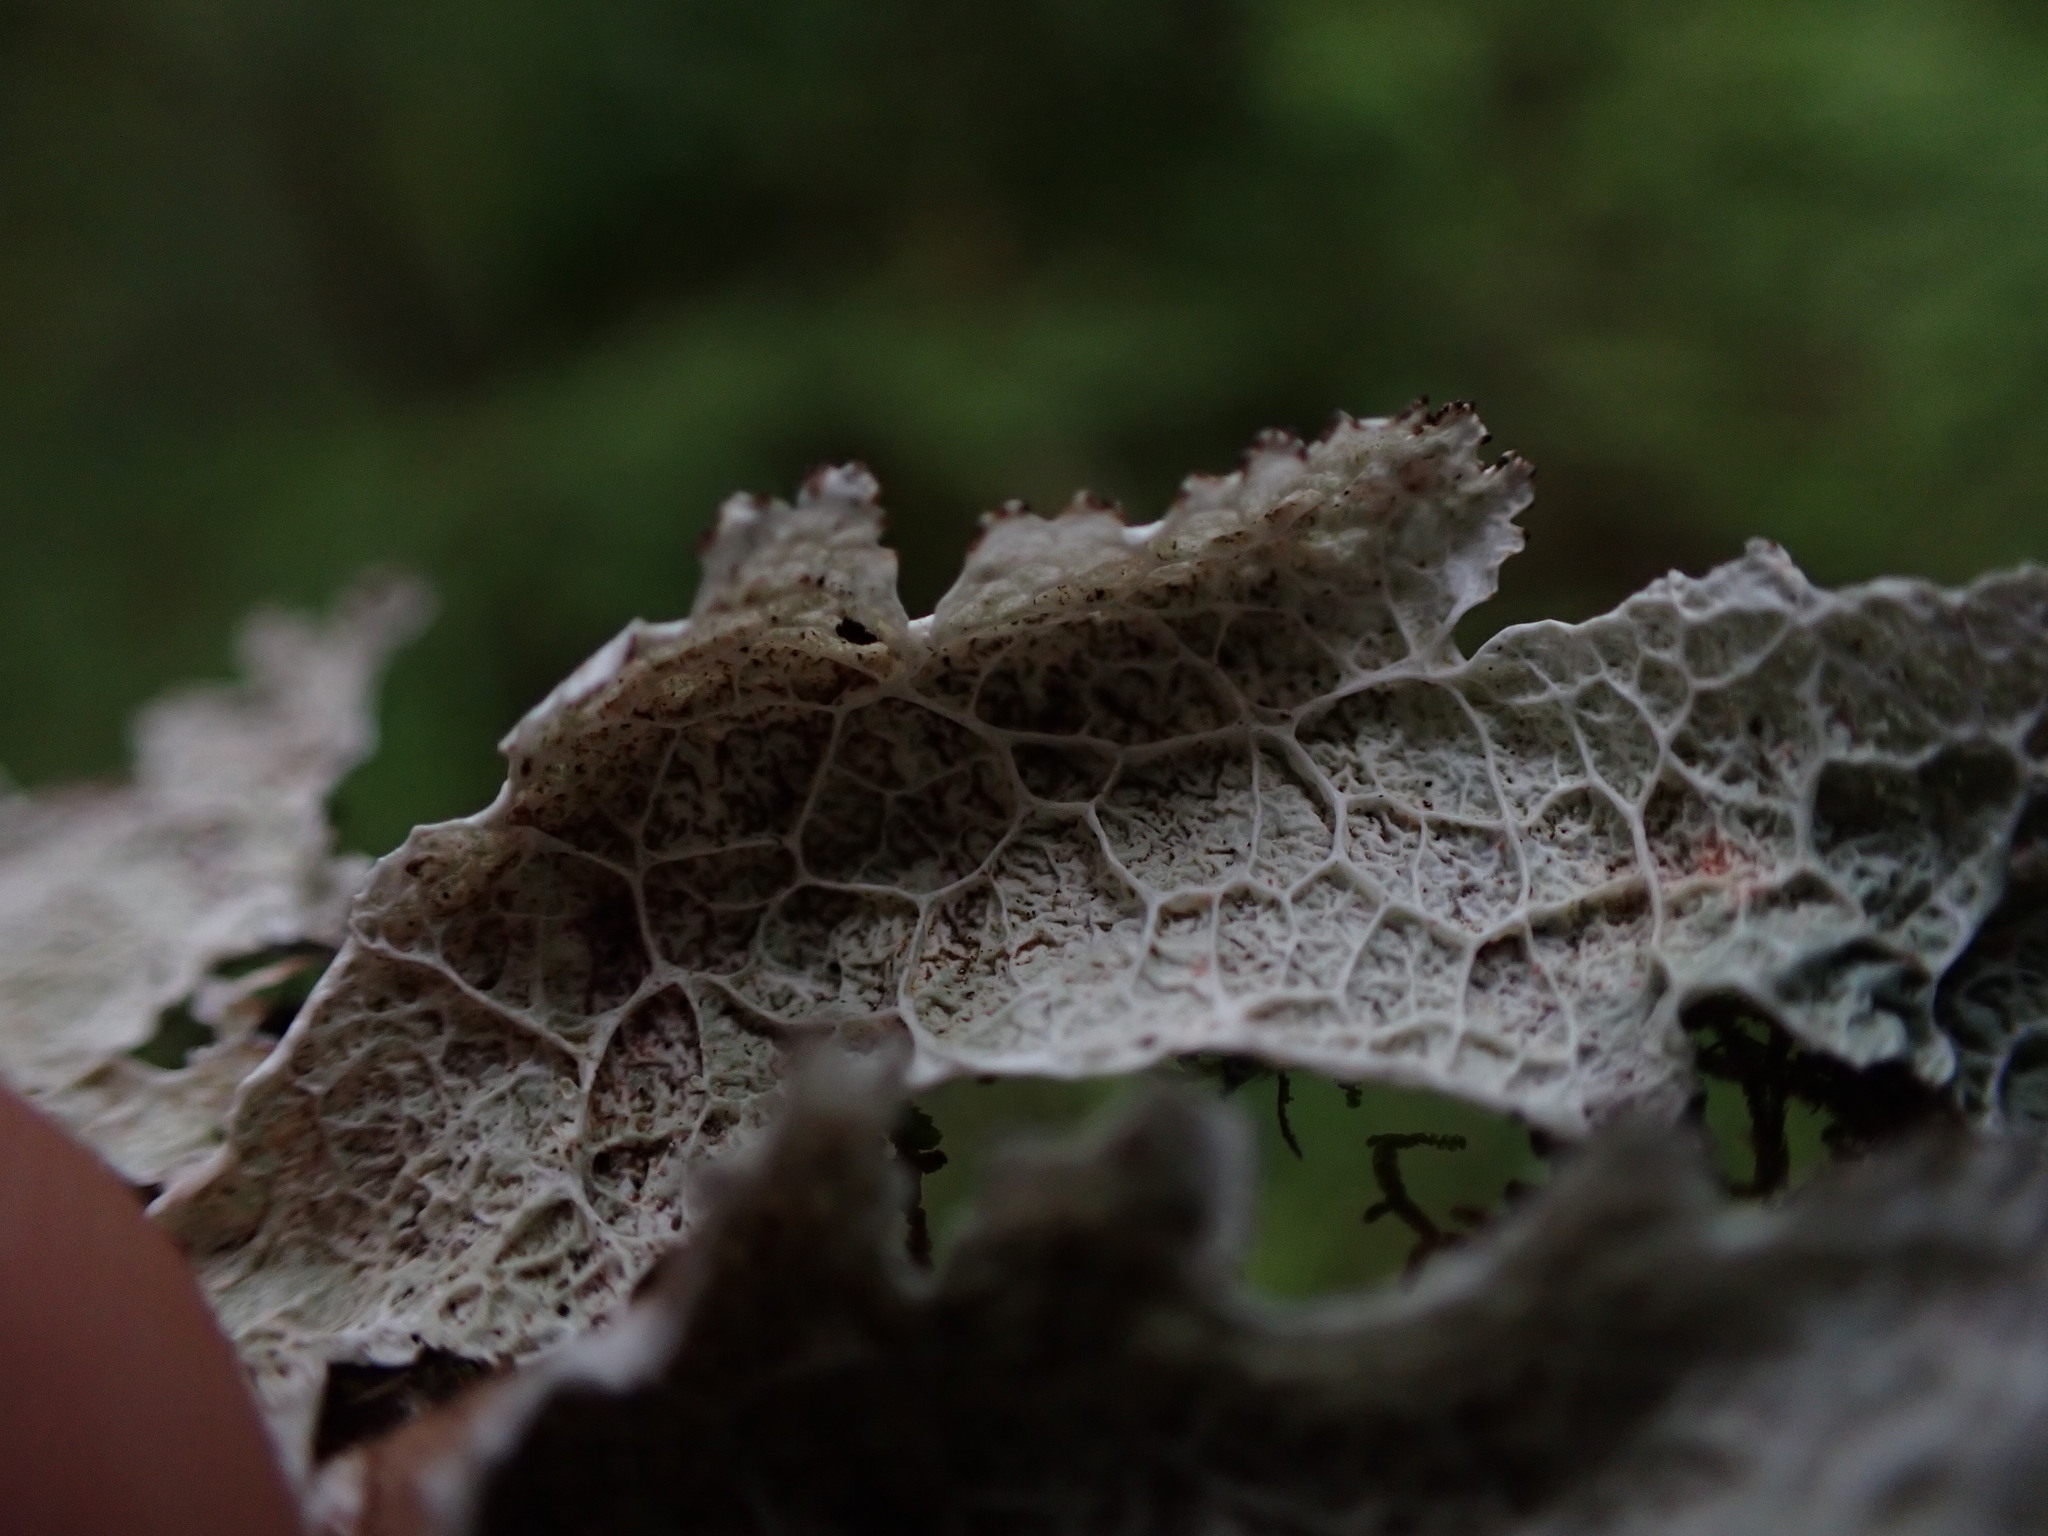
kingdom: Fungi
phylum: Ascomycota
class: Lecanoromycetes
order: Lecanorales
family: Parmeliaceae
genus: Platismatia
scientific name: Platismatia norvegica
